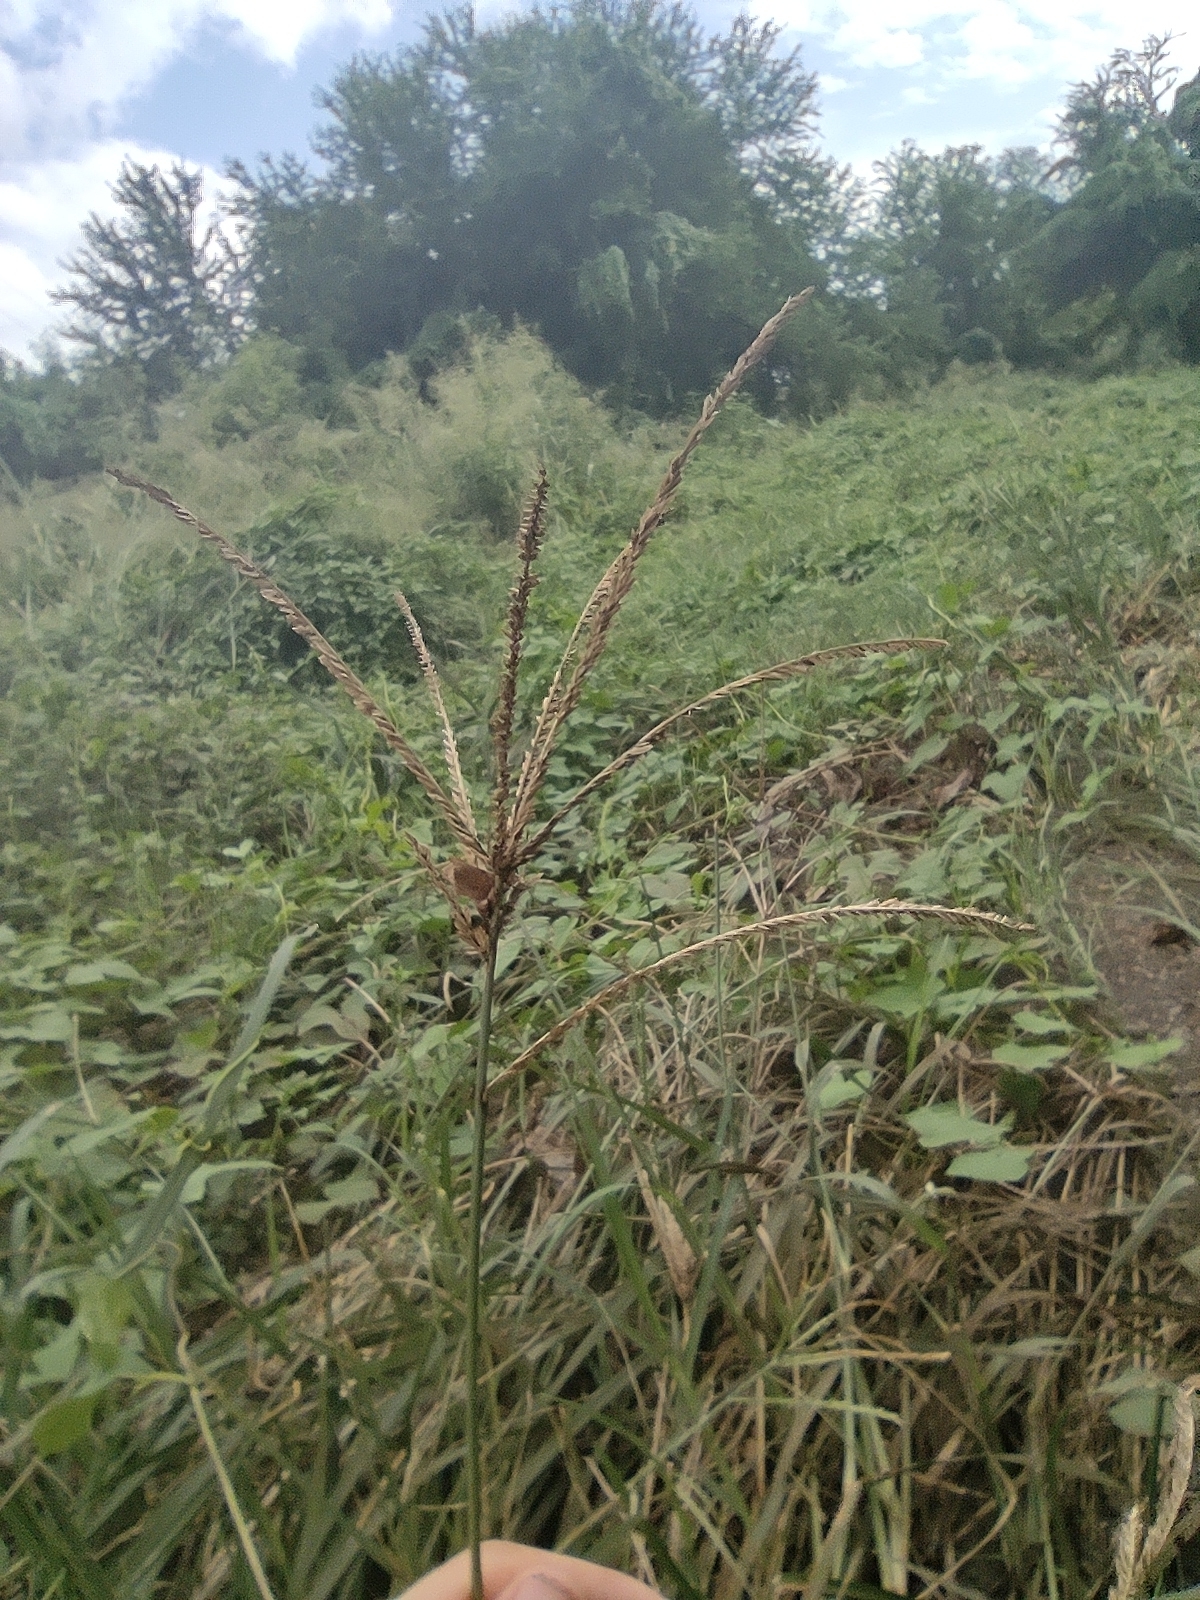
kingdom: Plantae
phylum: Tracheophyta
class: Liliopsida
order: Poales
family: Poaceae
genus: Eleusine
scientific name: Eleusine indica
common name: Yard-grass
